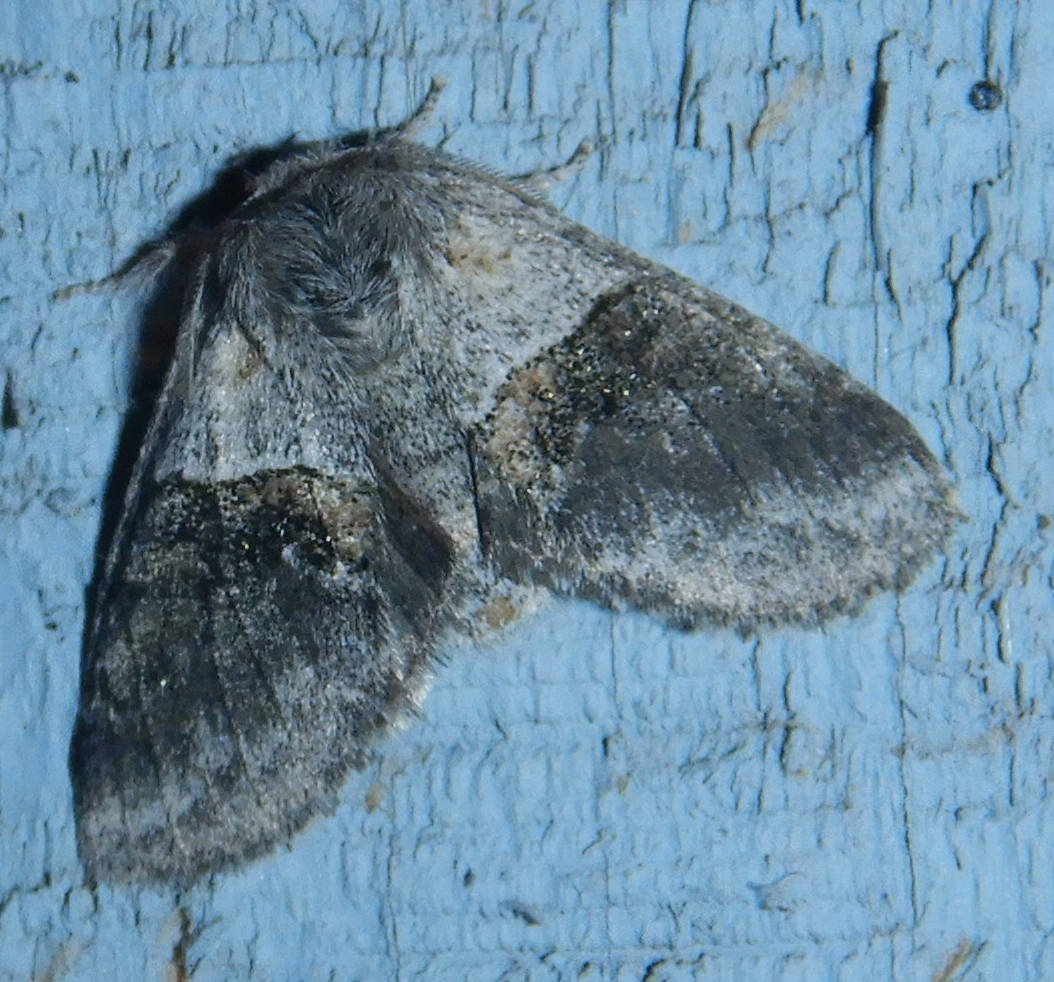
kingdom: Animalia
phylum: Arthropoda
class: Insecta
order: Lepidoptera
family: Notodontidae
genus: Gluphisia
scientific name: Gluphisia septentrionis
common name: Common gluphisia
